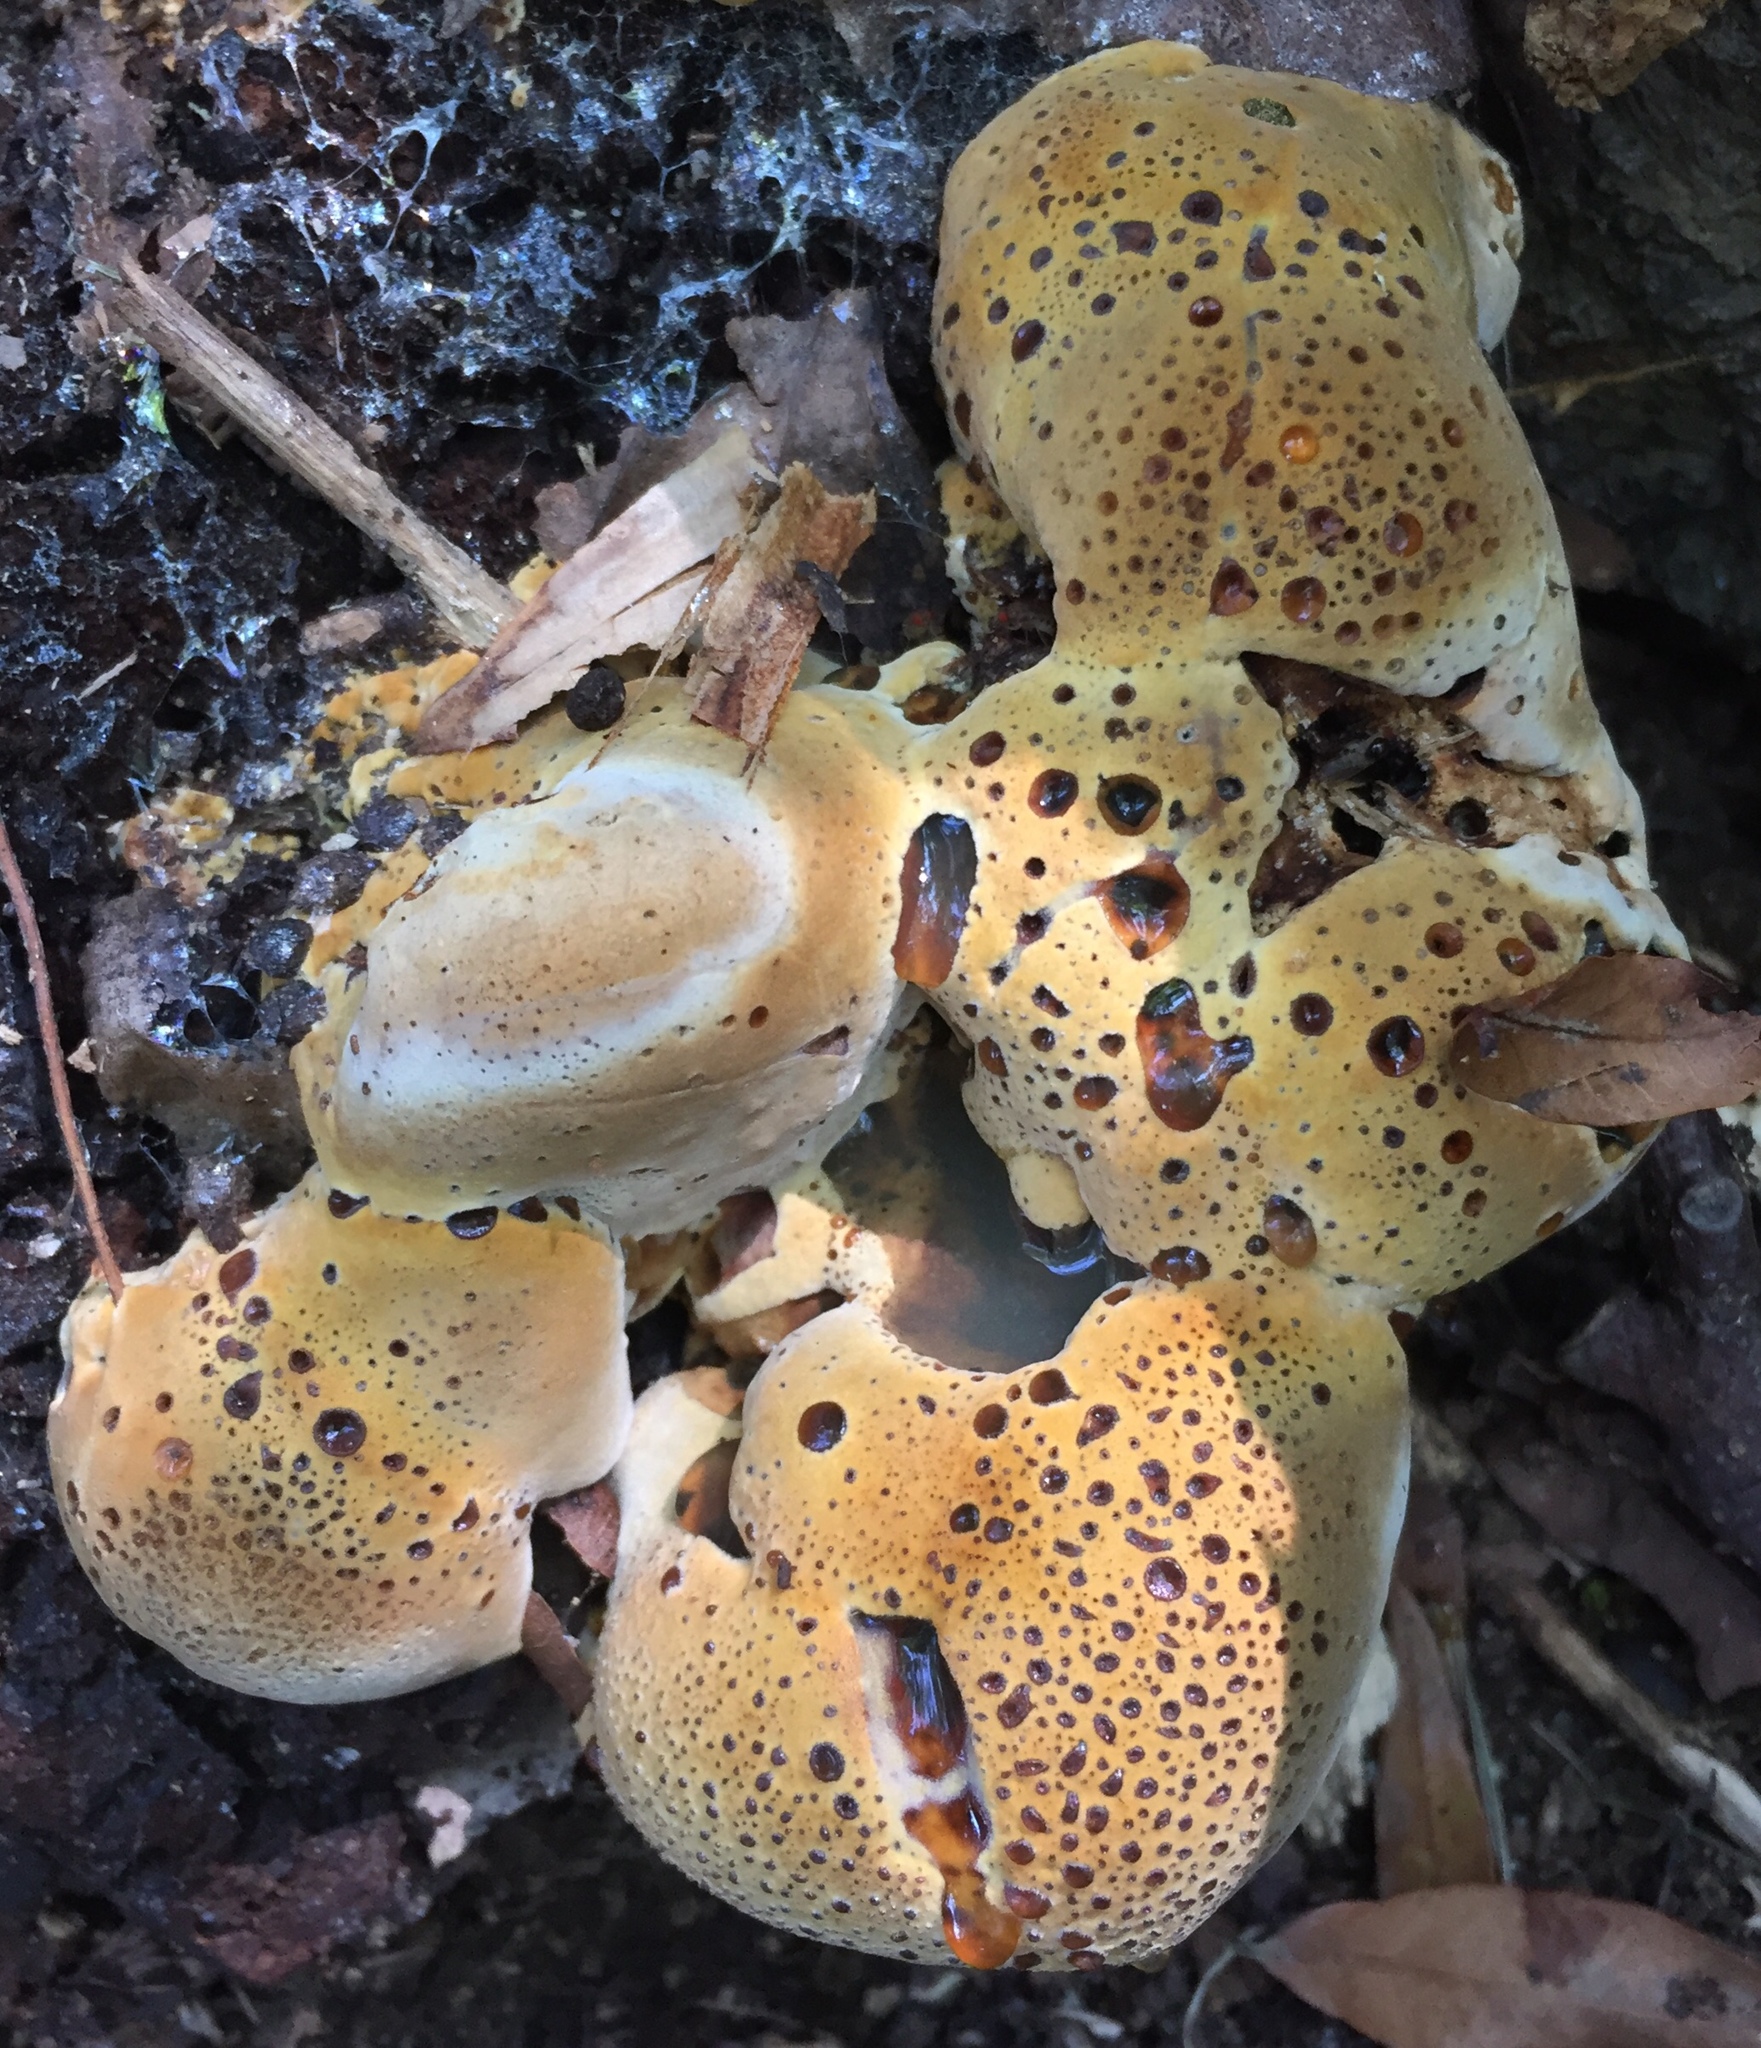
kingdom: Fungi
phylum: Basidiomycota
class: Agaricomycetes
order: Hymenochaetales
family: Hymenochaetaceae
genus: Pseudoinonotus
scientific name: Pseudoinonotus dryadeus
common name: Oak bracket
